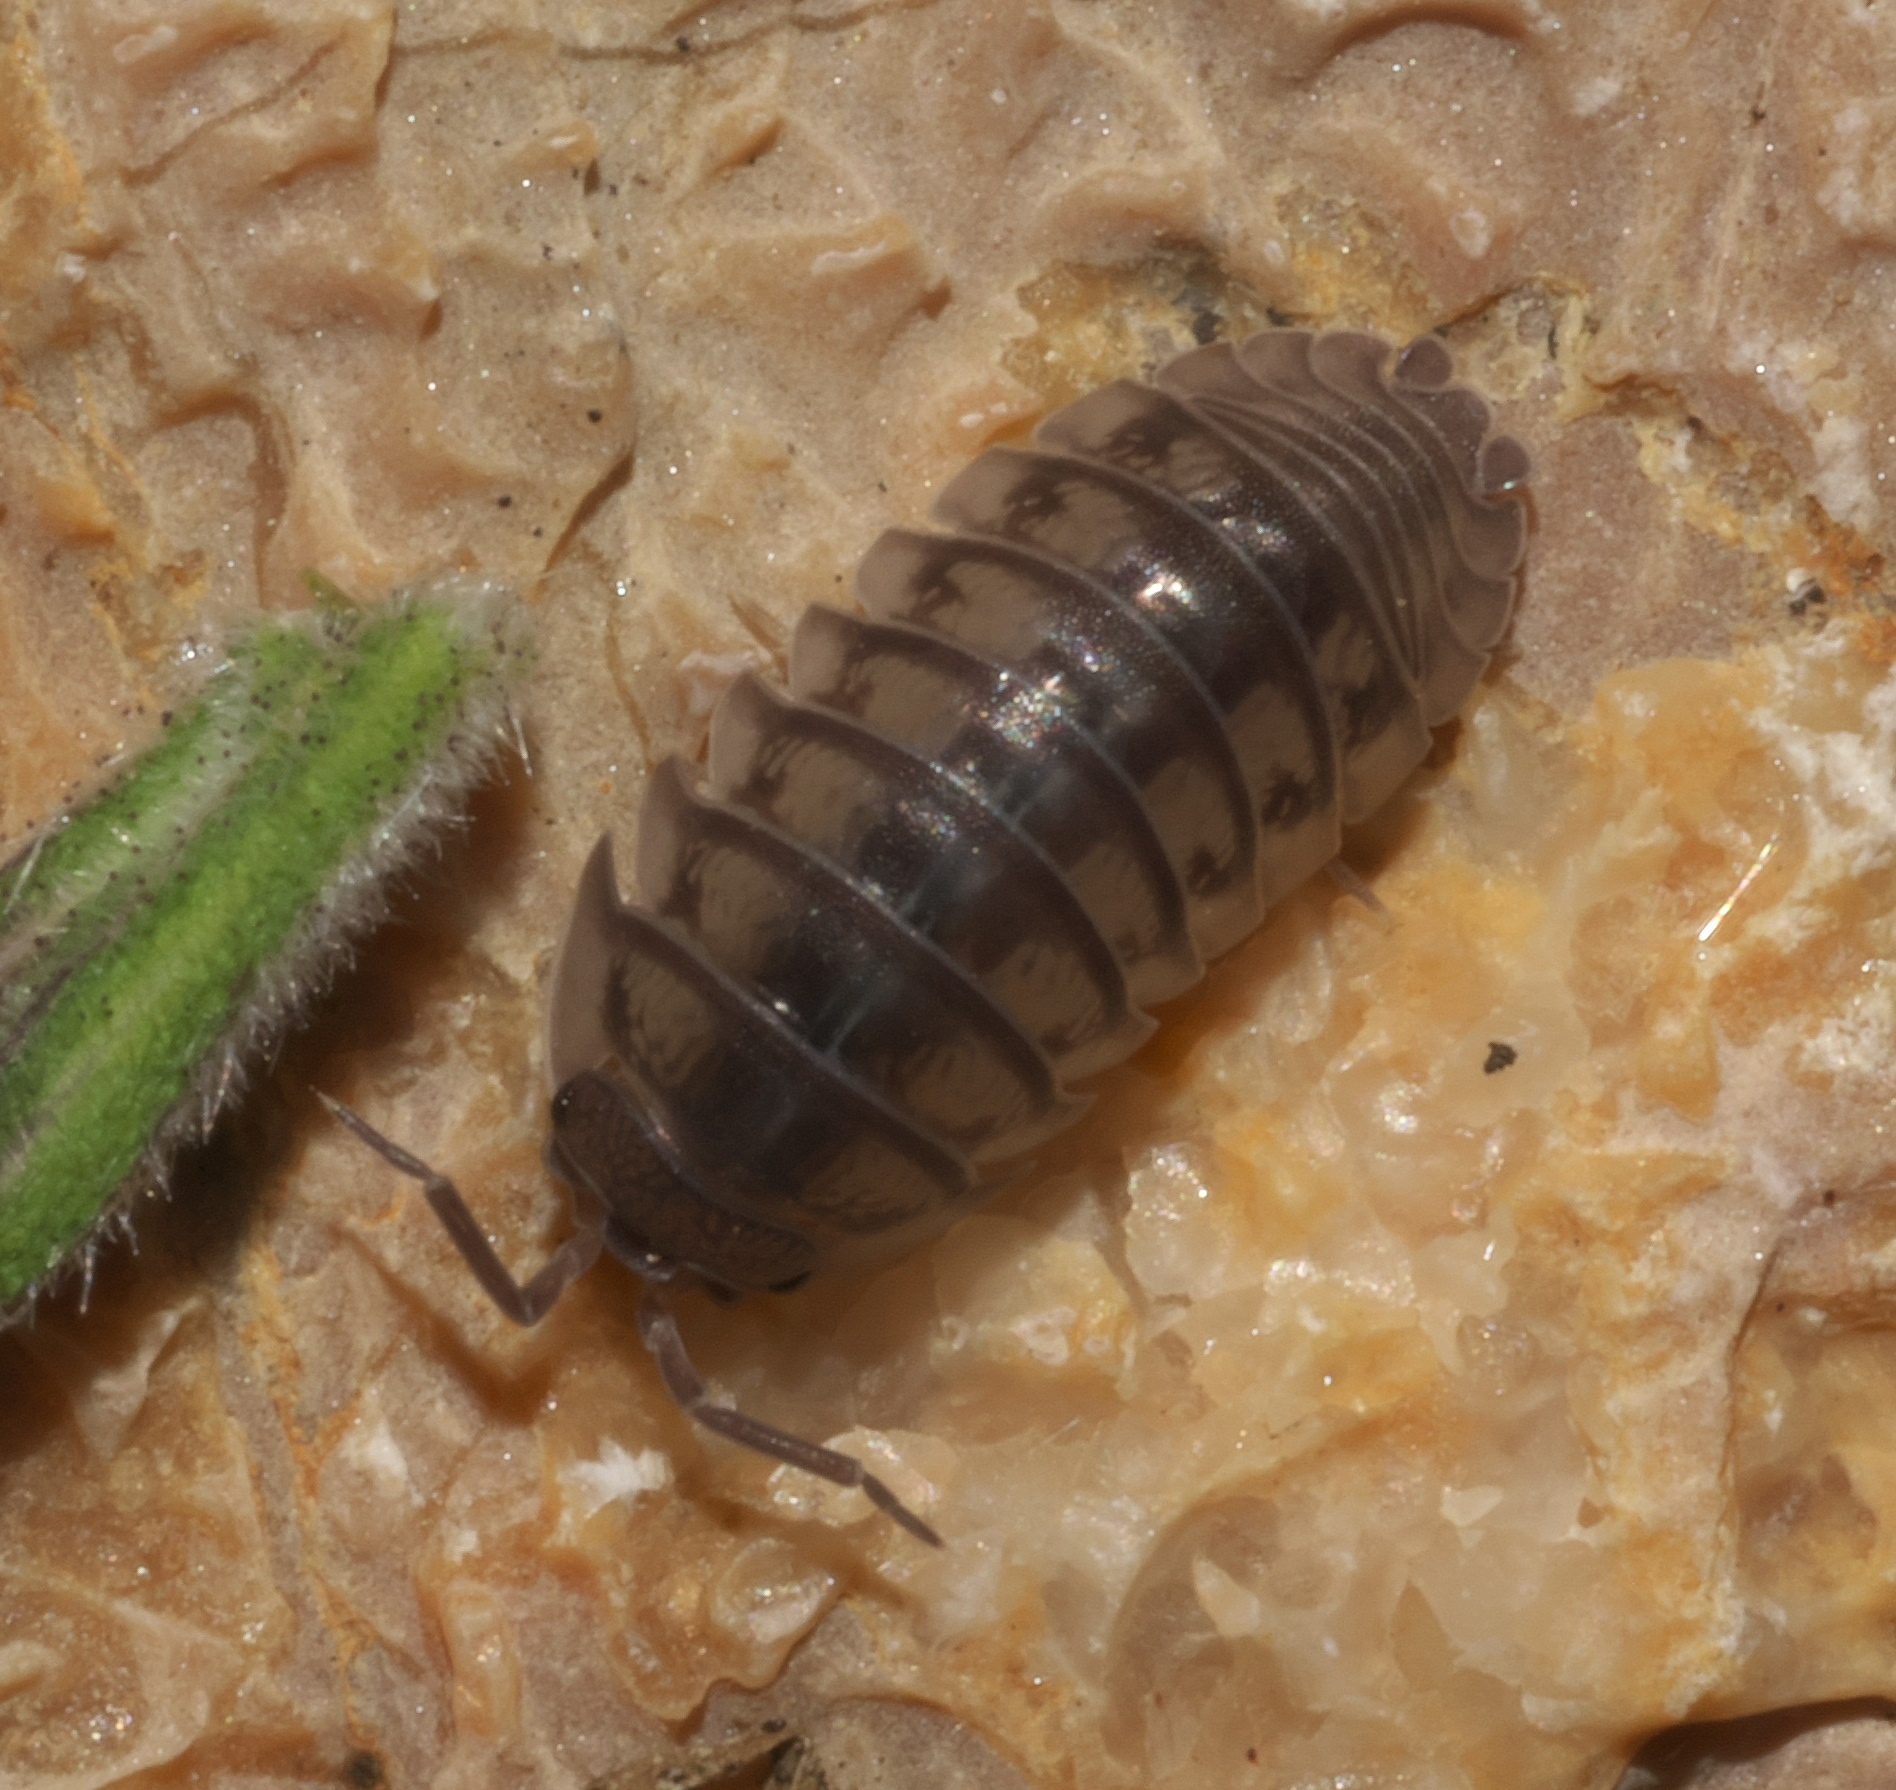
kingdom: Animalia
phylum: Arthropoda
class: Malacostraca
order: Isopoda
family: Armadillidiidae
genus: Armadillidium
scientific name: Armadillidium nasatum
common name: Isopod
